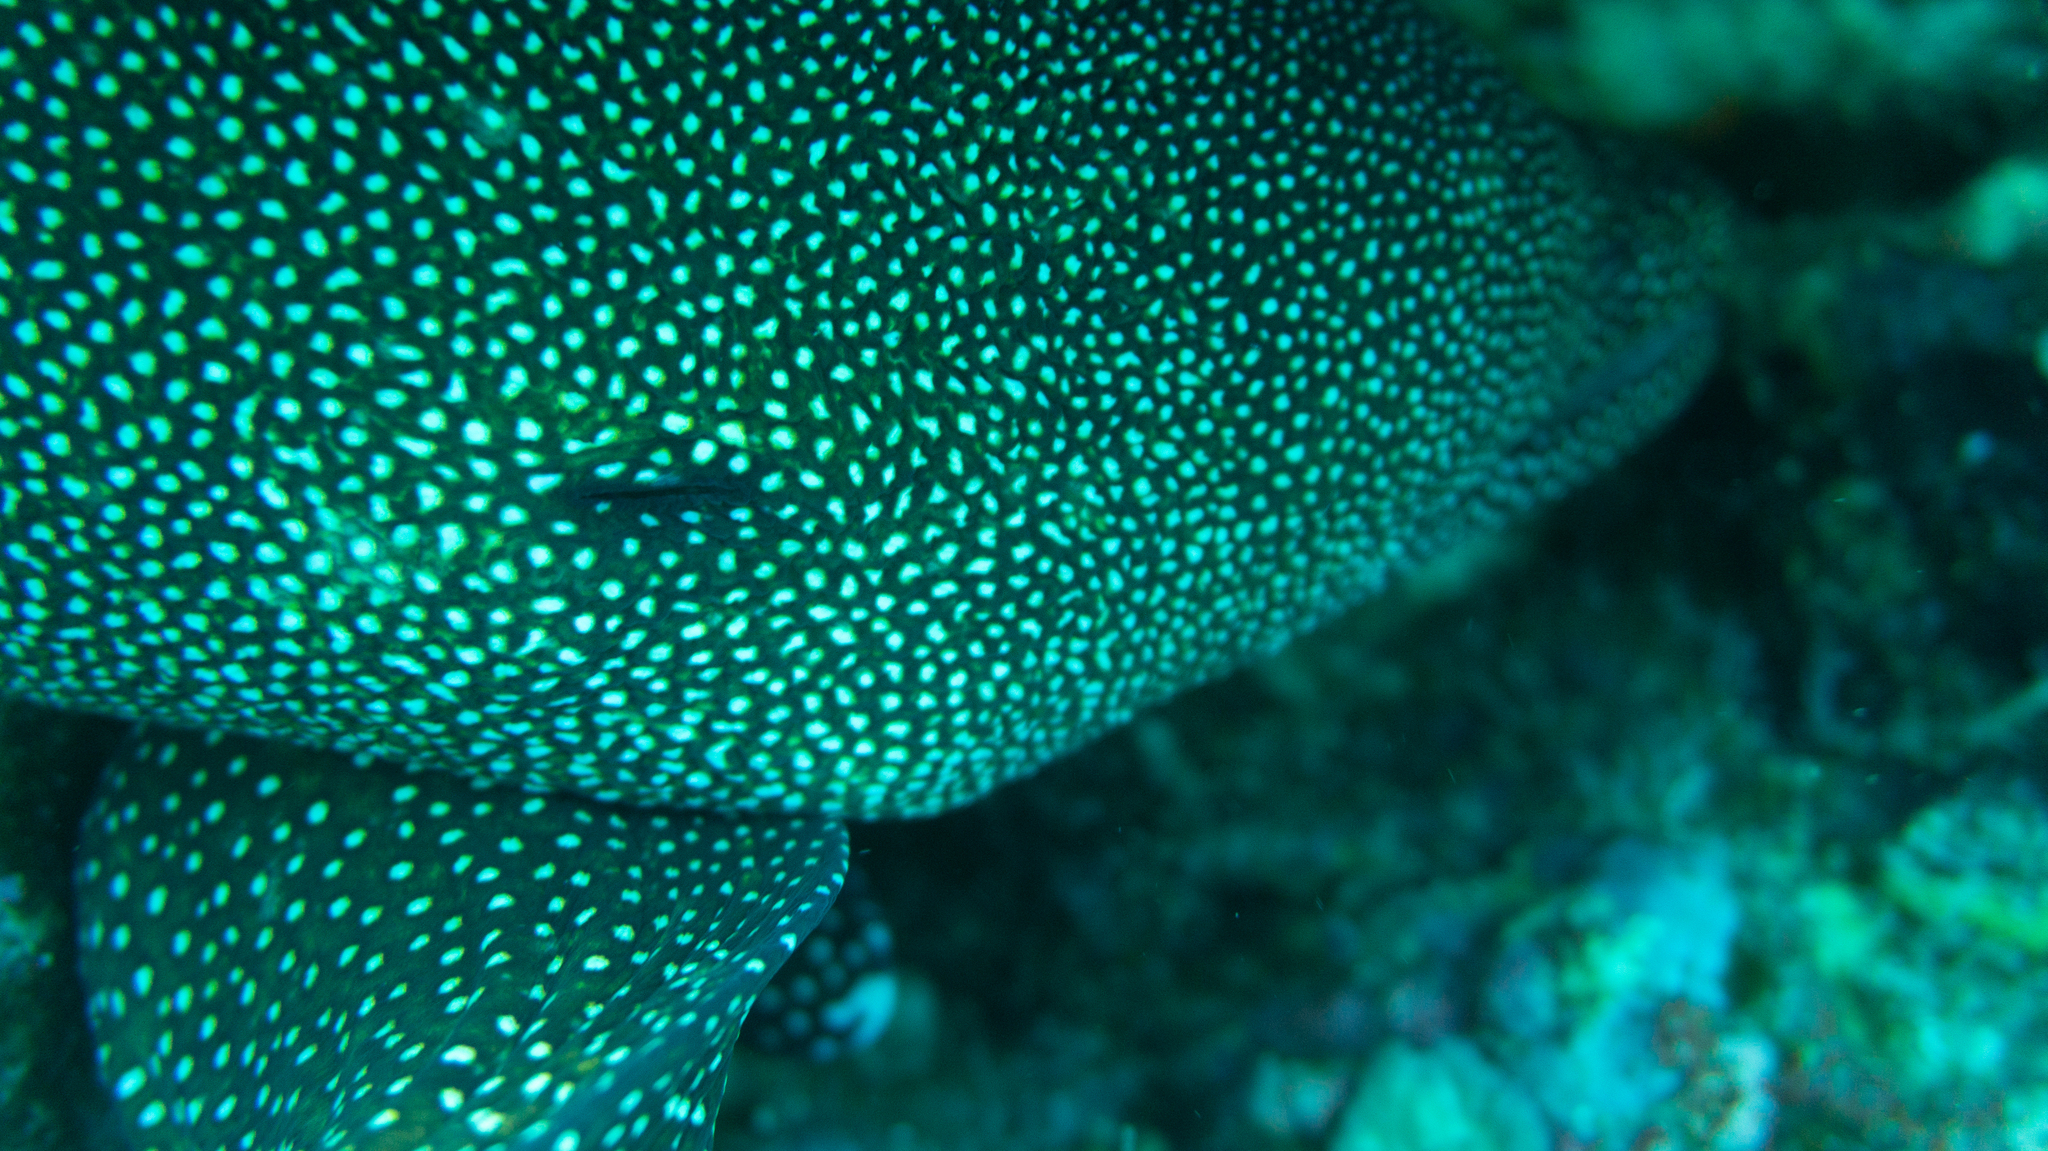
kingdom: Animalia
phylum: Chordata
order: Anguilliformes
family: Muraenidae
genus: Gymnothorax
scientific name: Gymnothorax meleagris
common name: Guineafowl moray
